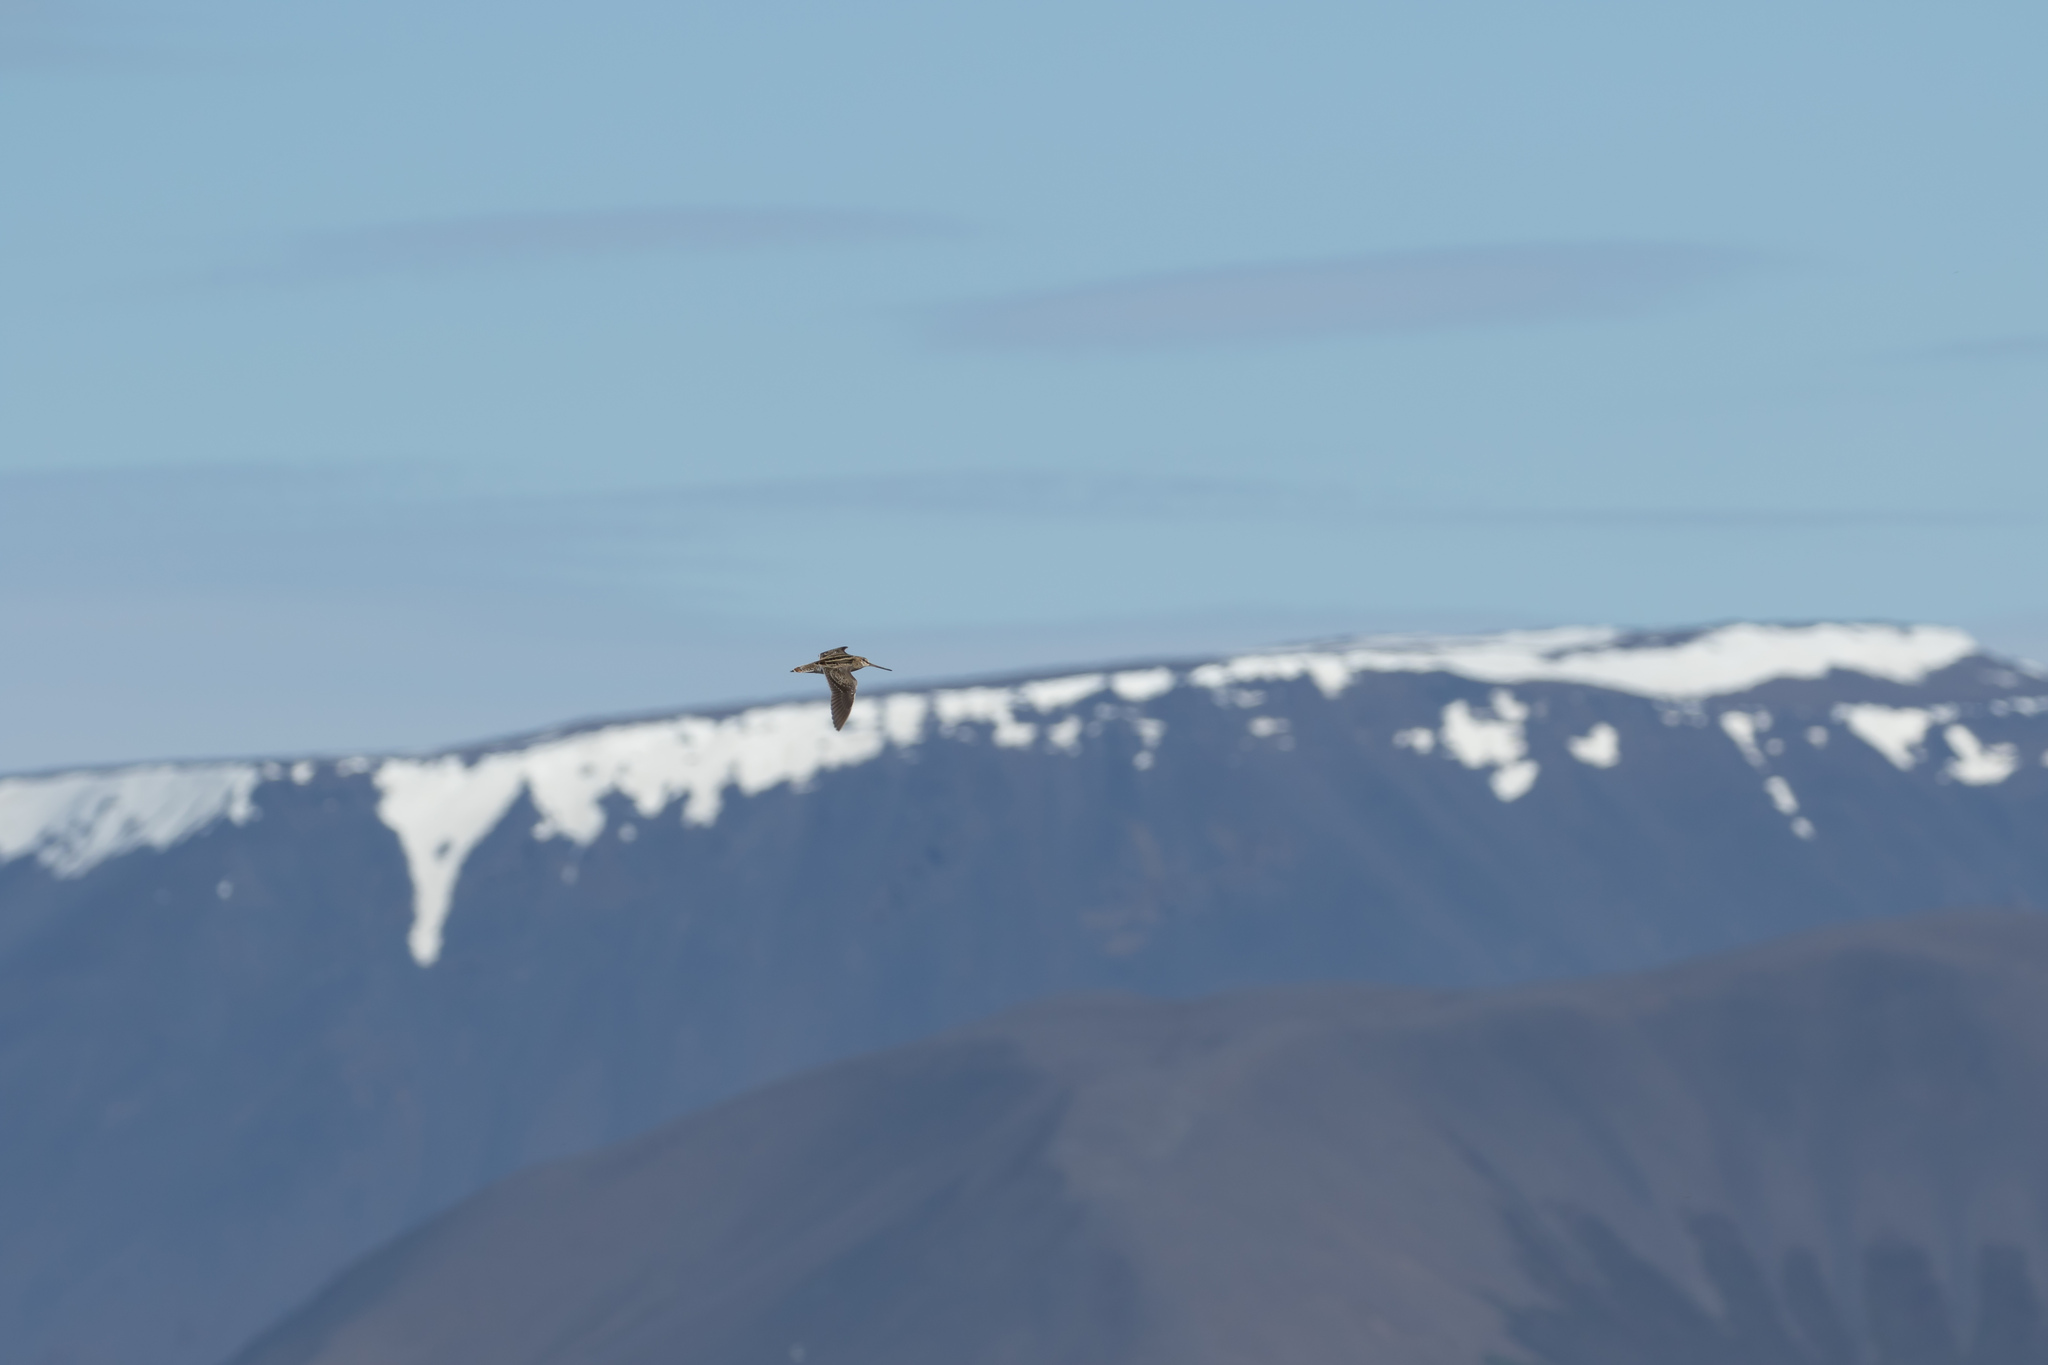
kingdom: Animalia
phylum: Chordata
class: Aves
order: Charadriiformes
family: Scolopacidae
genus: Gallinago
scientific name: Gallinago gallinago
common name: Common snipe
